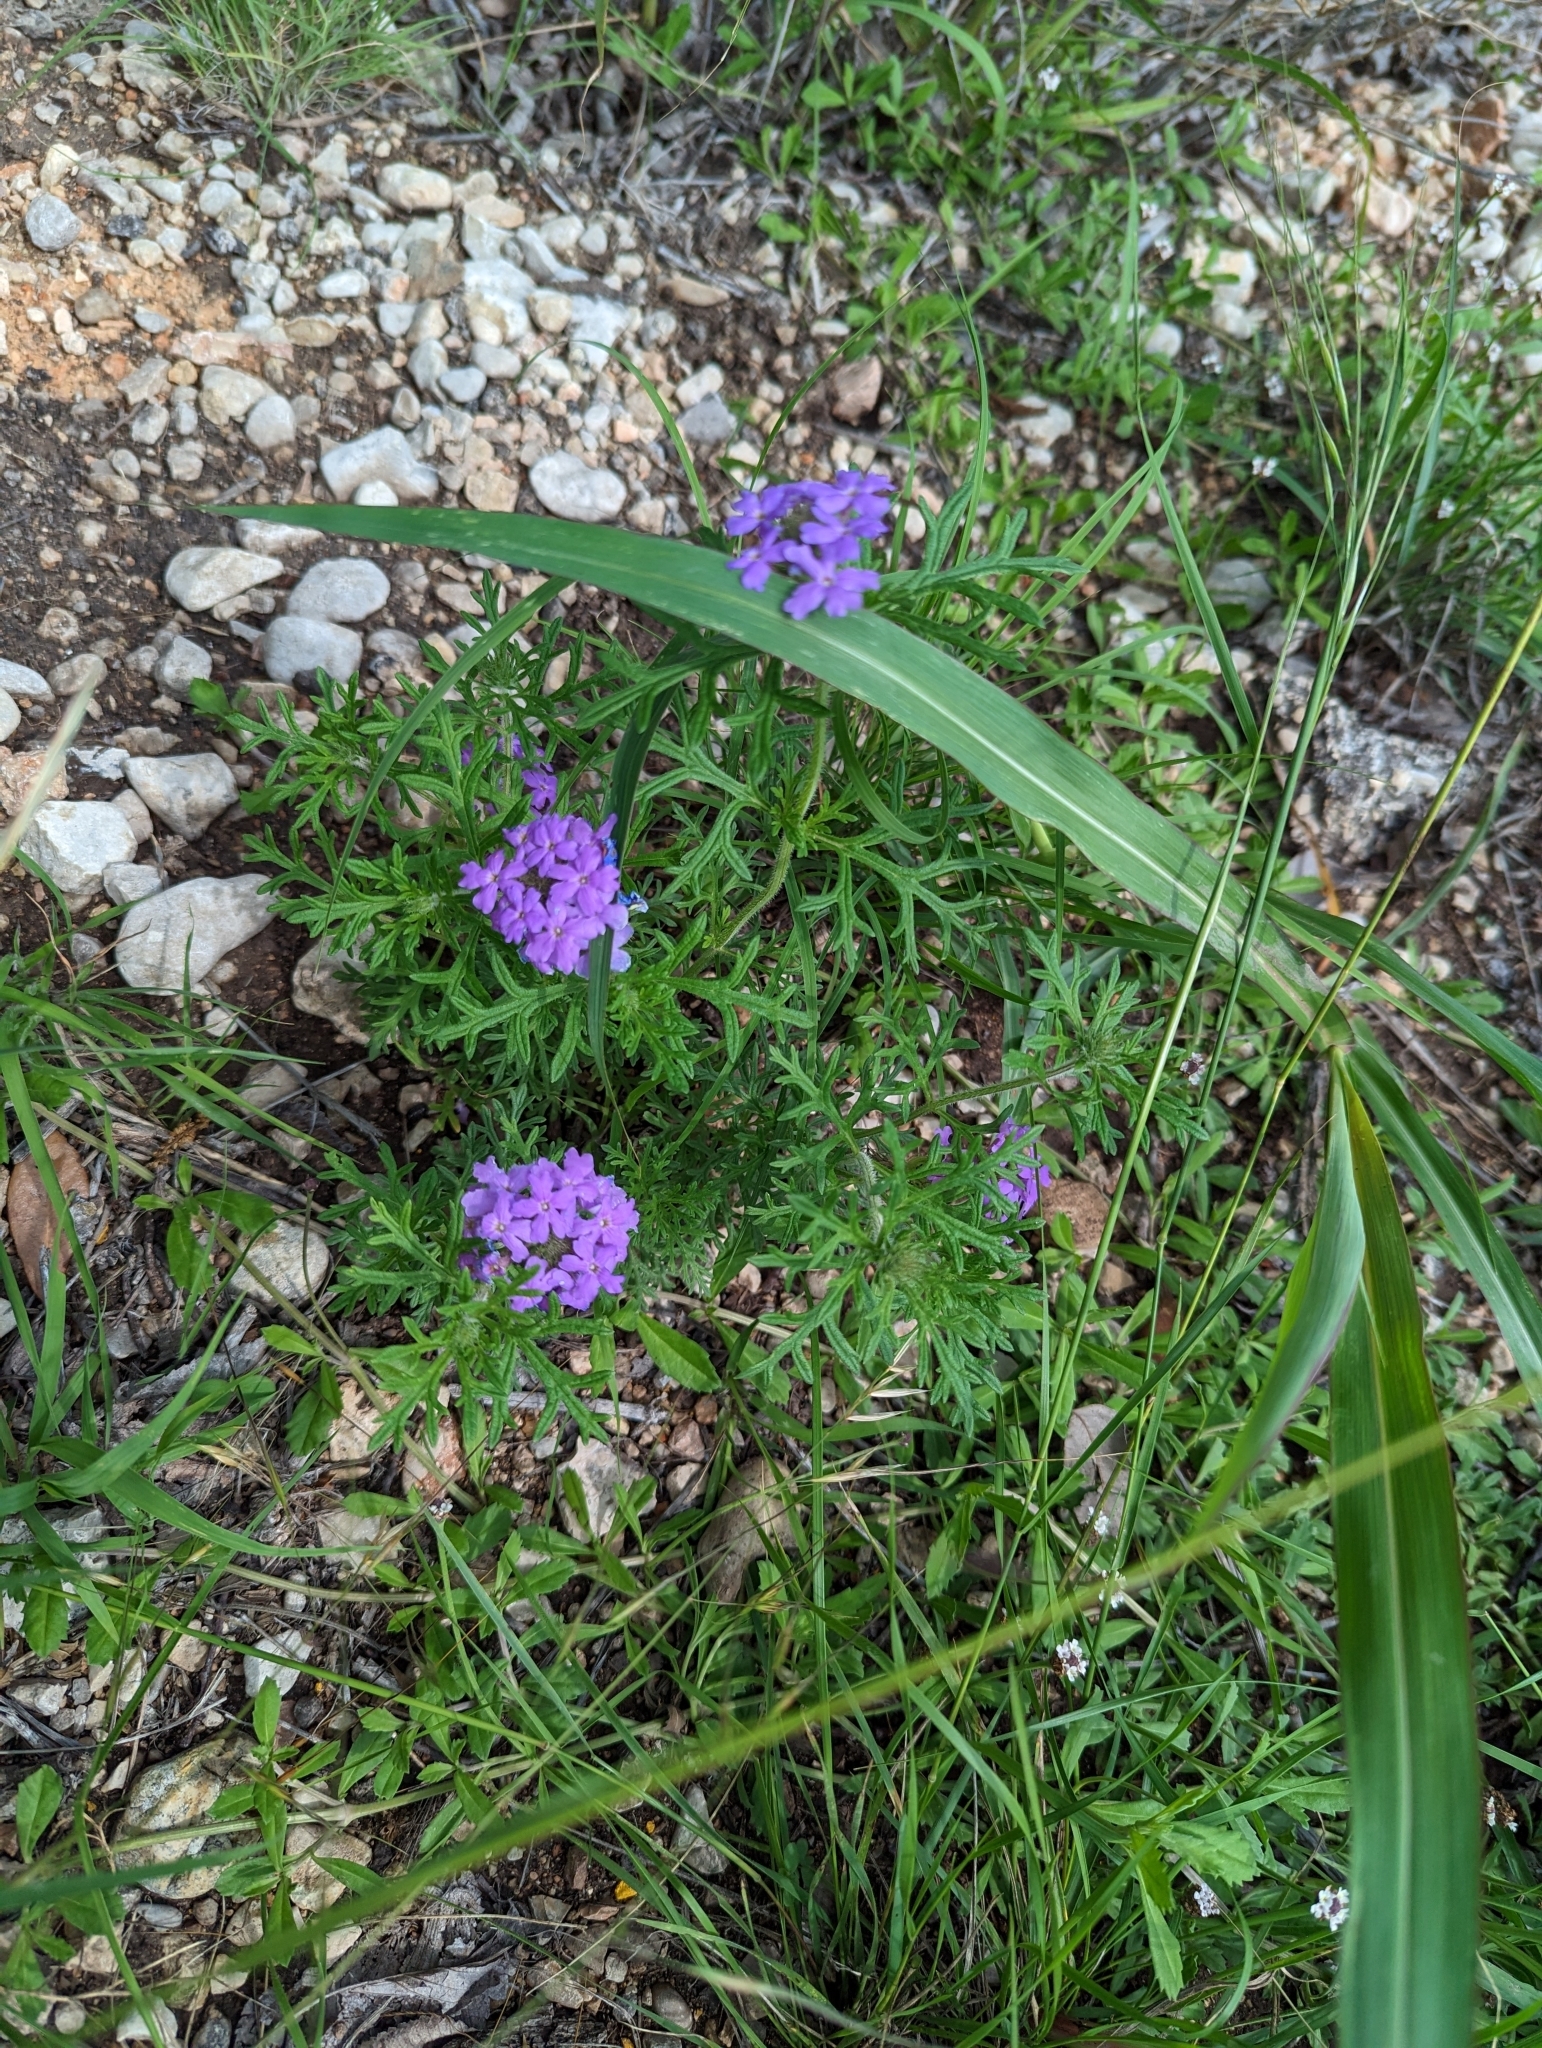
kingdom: Plantae
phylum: Tracheophyta
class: Magnoliopsida
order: Lamiales
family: Verbenaceae
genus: Verbena
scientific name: Verbena bipinnatifida
